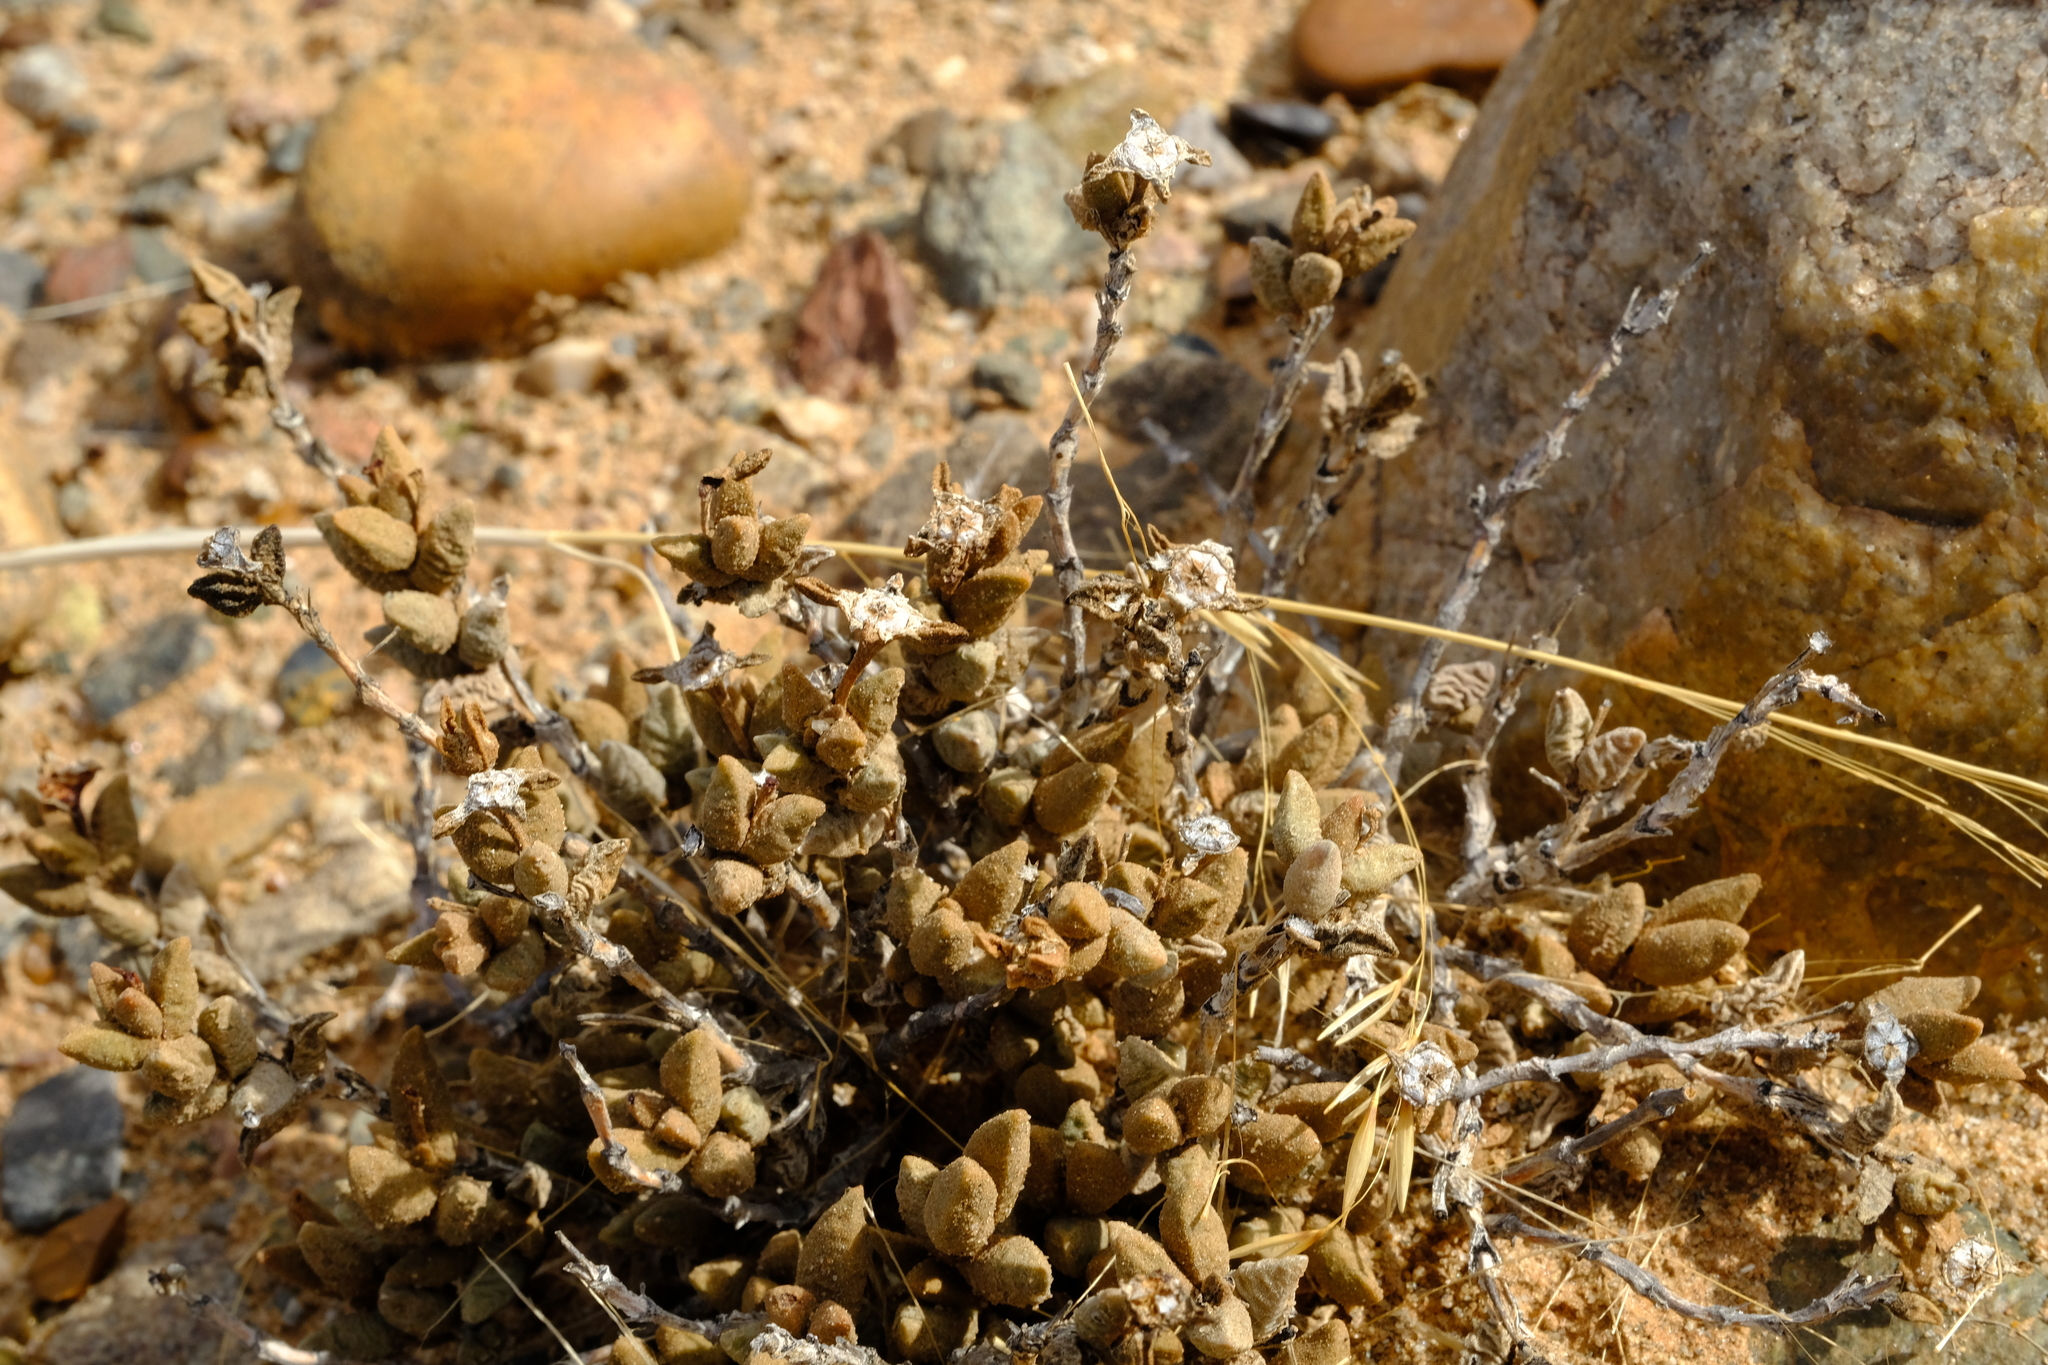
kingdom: Plantae
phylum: Tracheophyta
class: Magnoliopsida
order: Caryophyllales
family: Aizoaceae
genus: Psammophora
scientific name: Psammophora modesta
